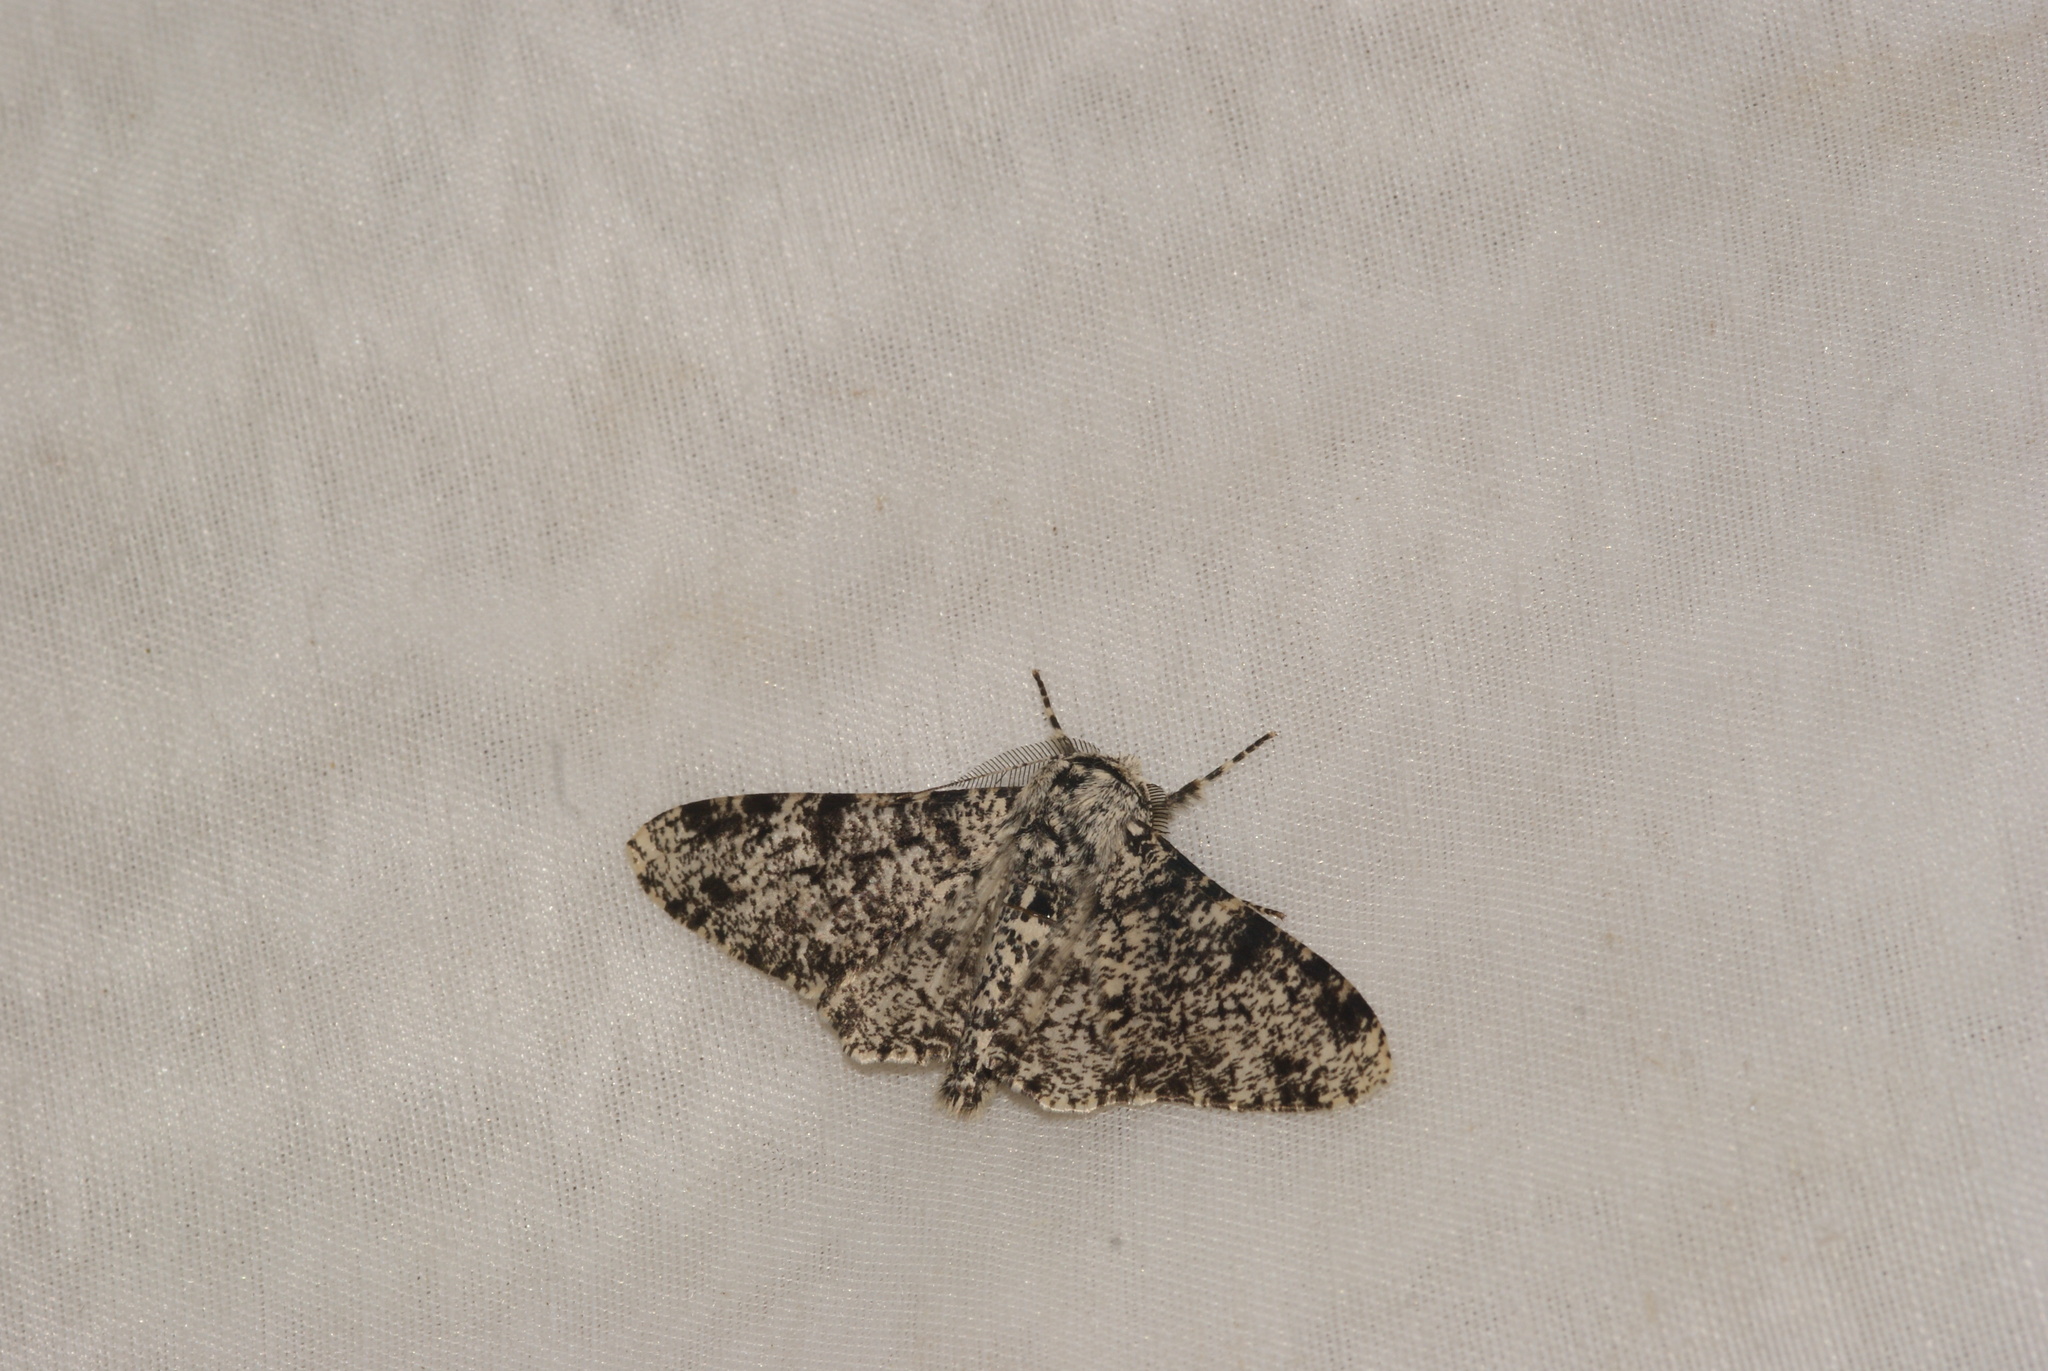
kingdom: Animalia
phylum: Arthropoda
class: Insecta
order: Lepidoptera
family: Geometridae
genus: Biston
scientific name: Biston betularia
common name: Peppered moth
